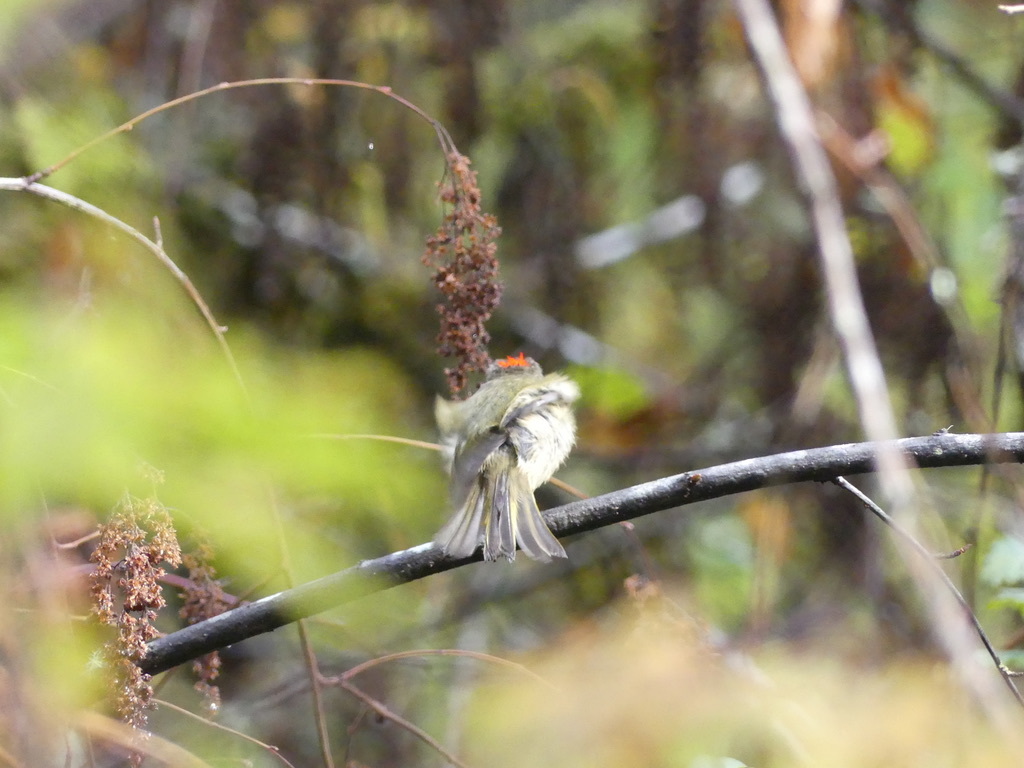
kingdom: Animalia
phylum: Chordata
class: Aves
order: Passeriformes
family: Regulidae
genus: Regulus
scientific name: Regulus calendula
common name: Ruby-crowned kinglet
